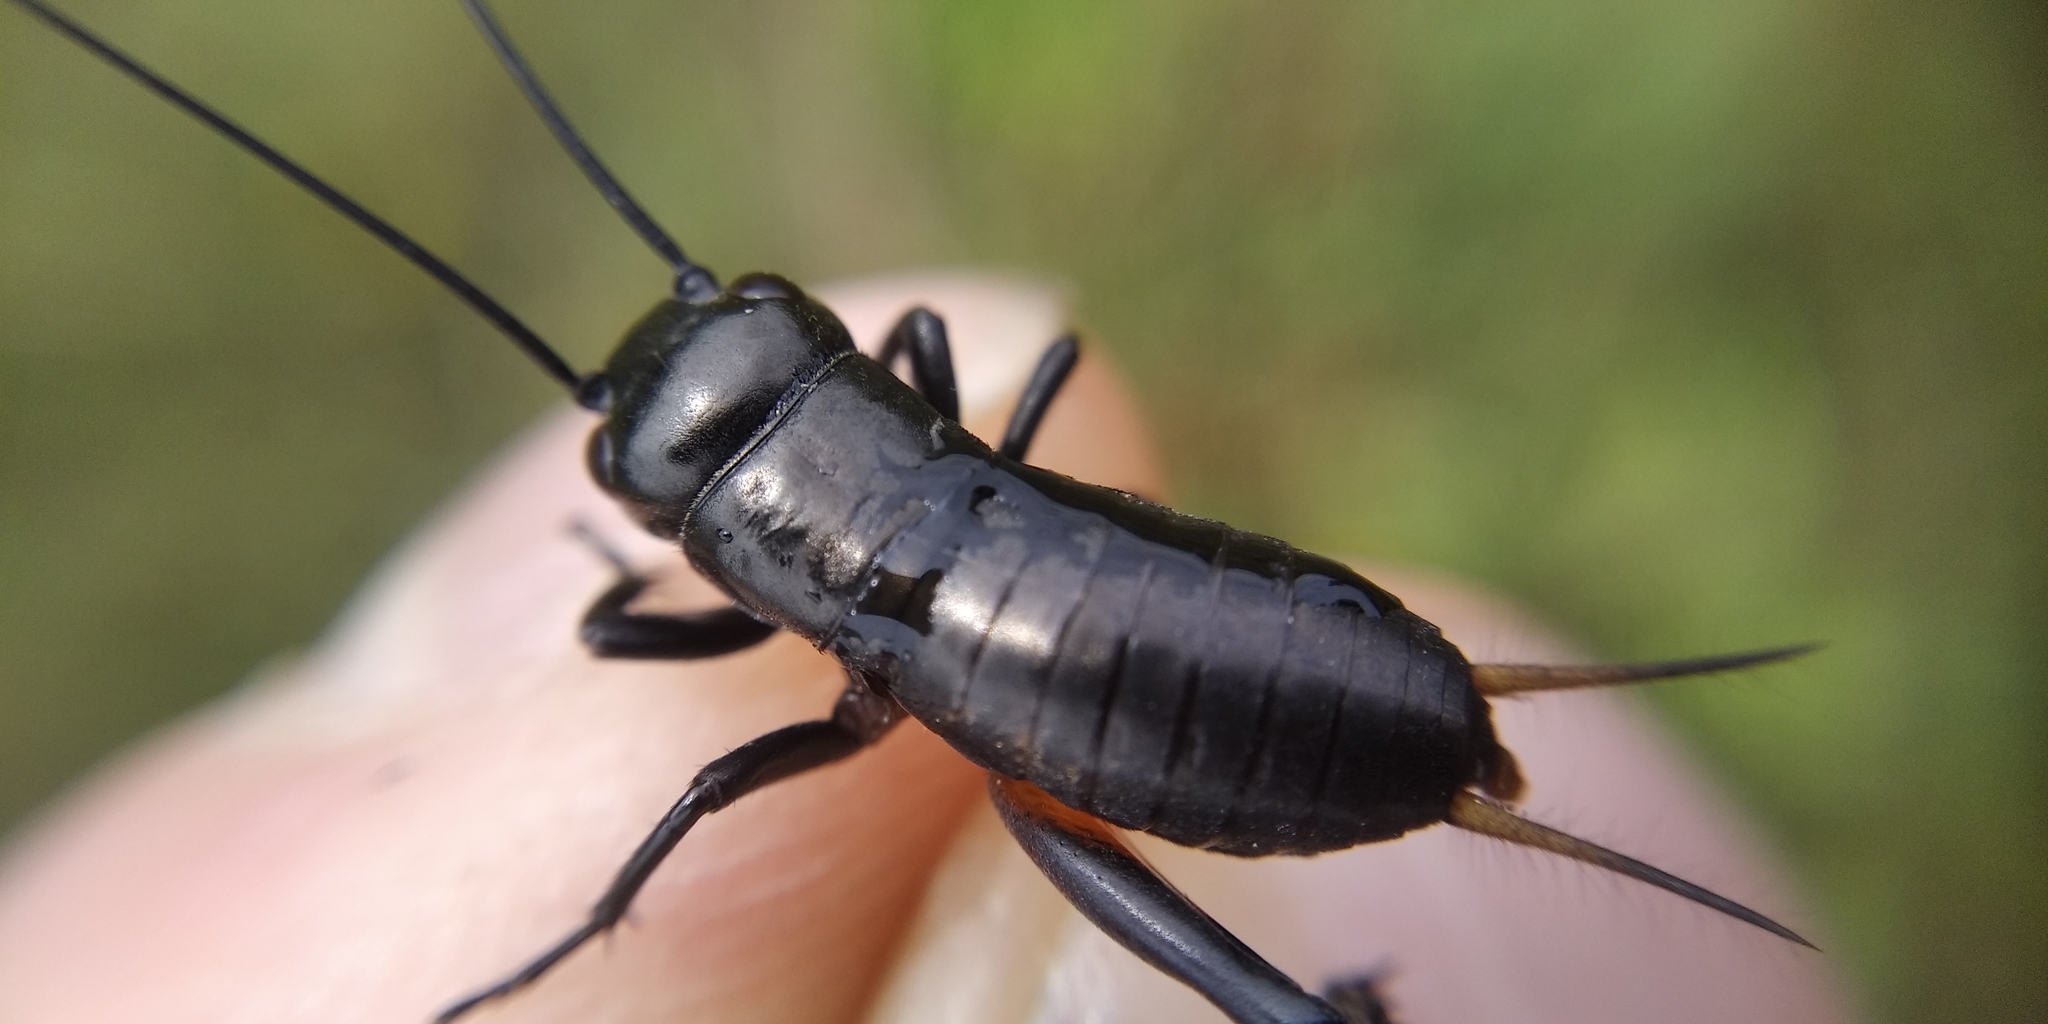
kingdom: Animalia
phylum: Arthropoda
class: Insecta
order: Orthoptera
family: Gryllidae
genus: Gryllus
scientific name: Gryllus campestris
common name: Field cricket
